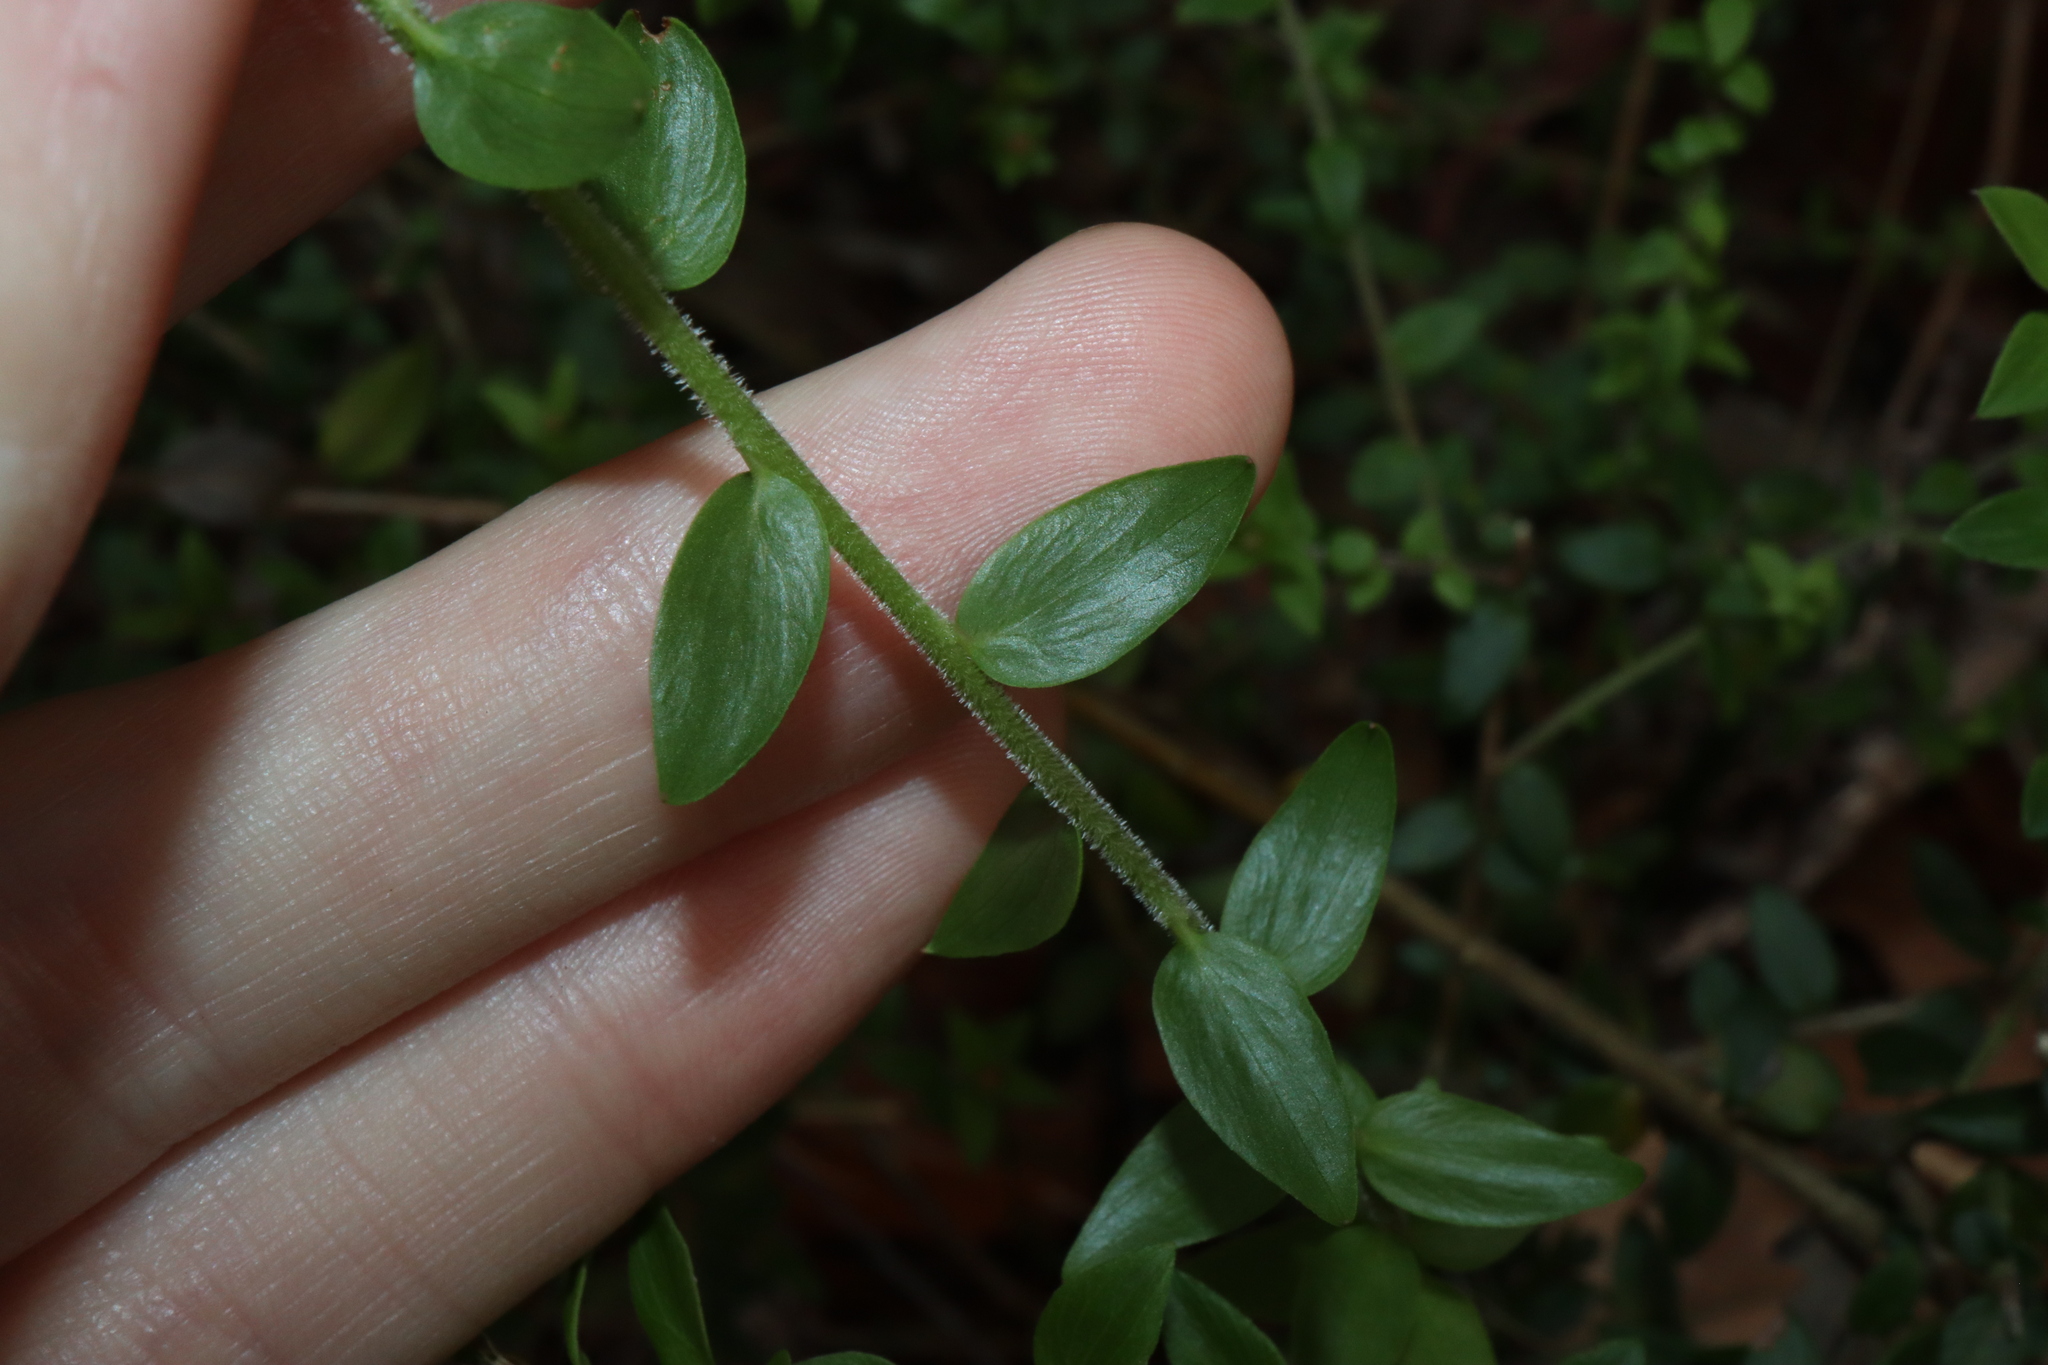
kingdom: Plantae
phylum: Tracheophyta
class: Magnoliopsida
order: Apiales
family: Apiaceae
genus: Platysace
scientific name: Platysace lanceolata
